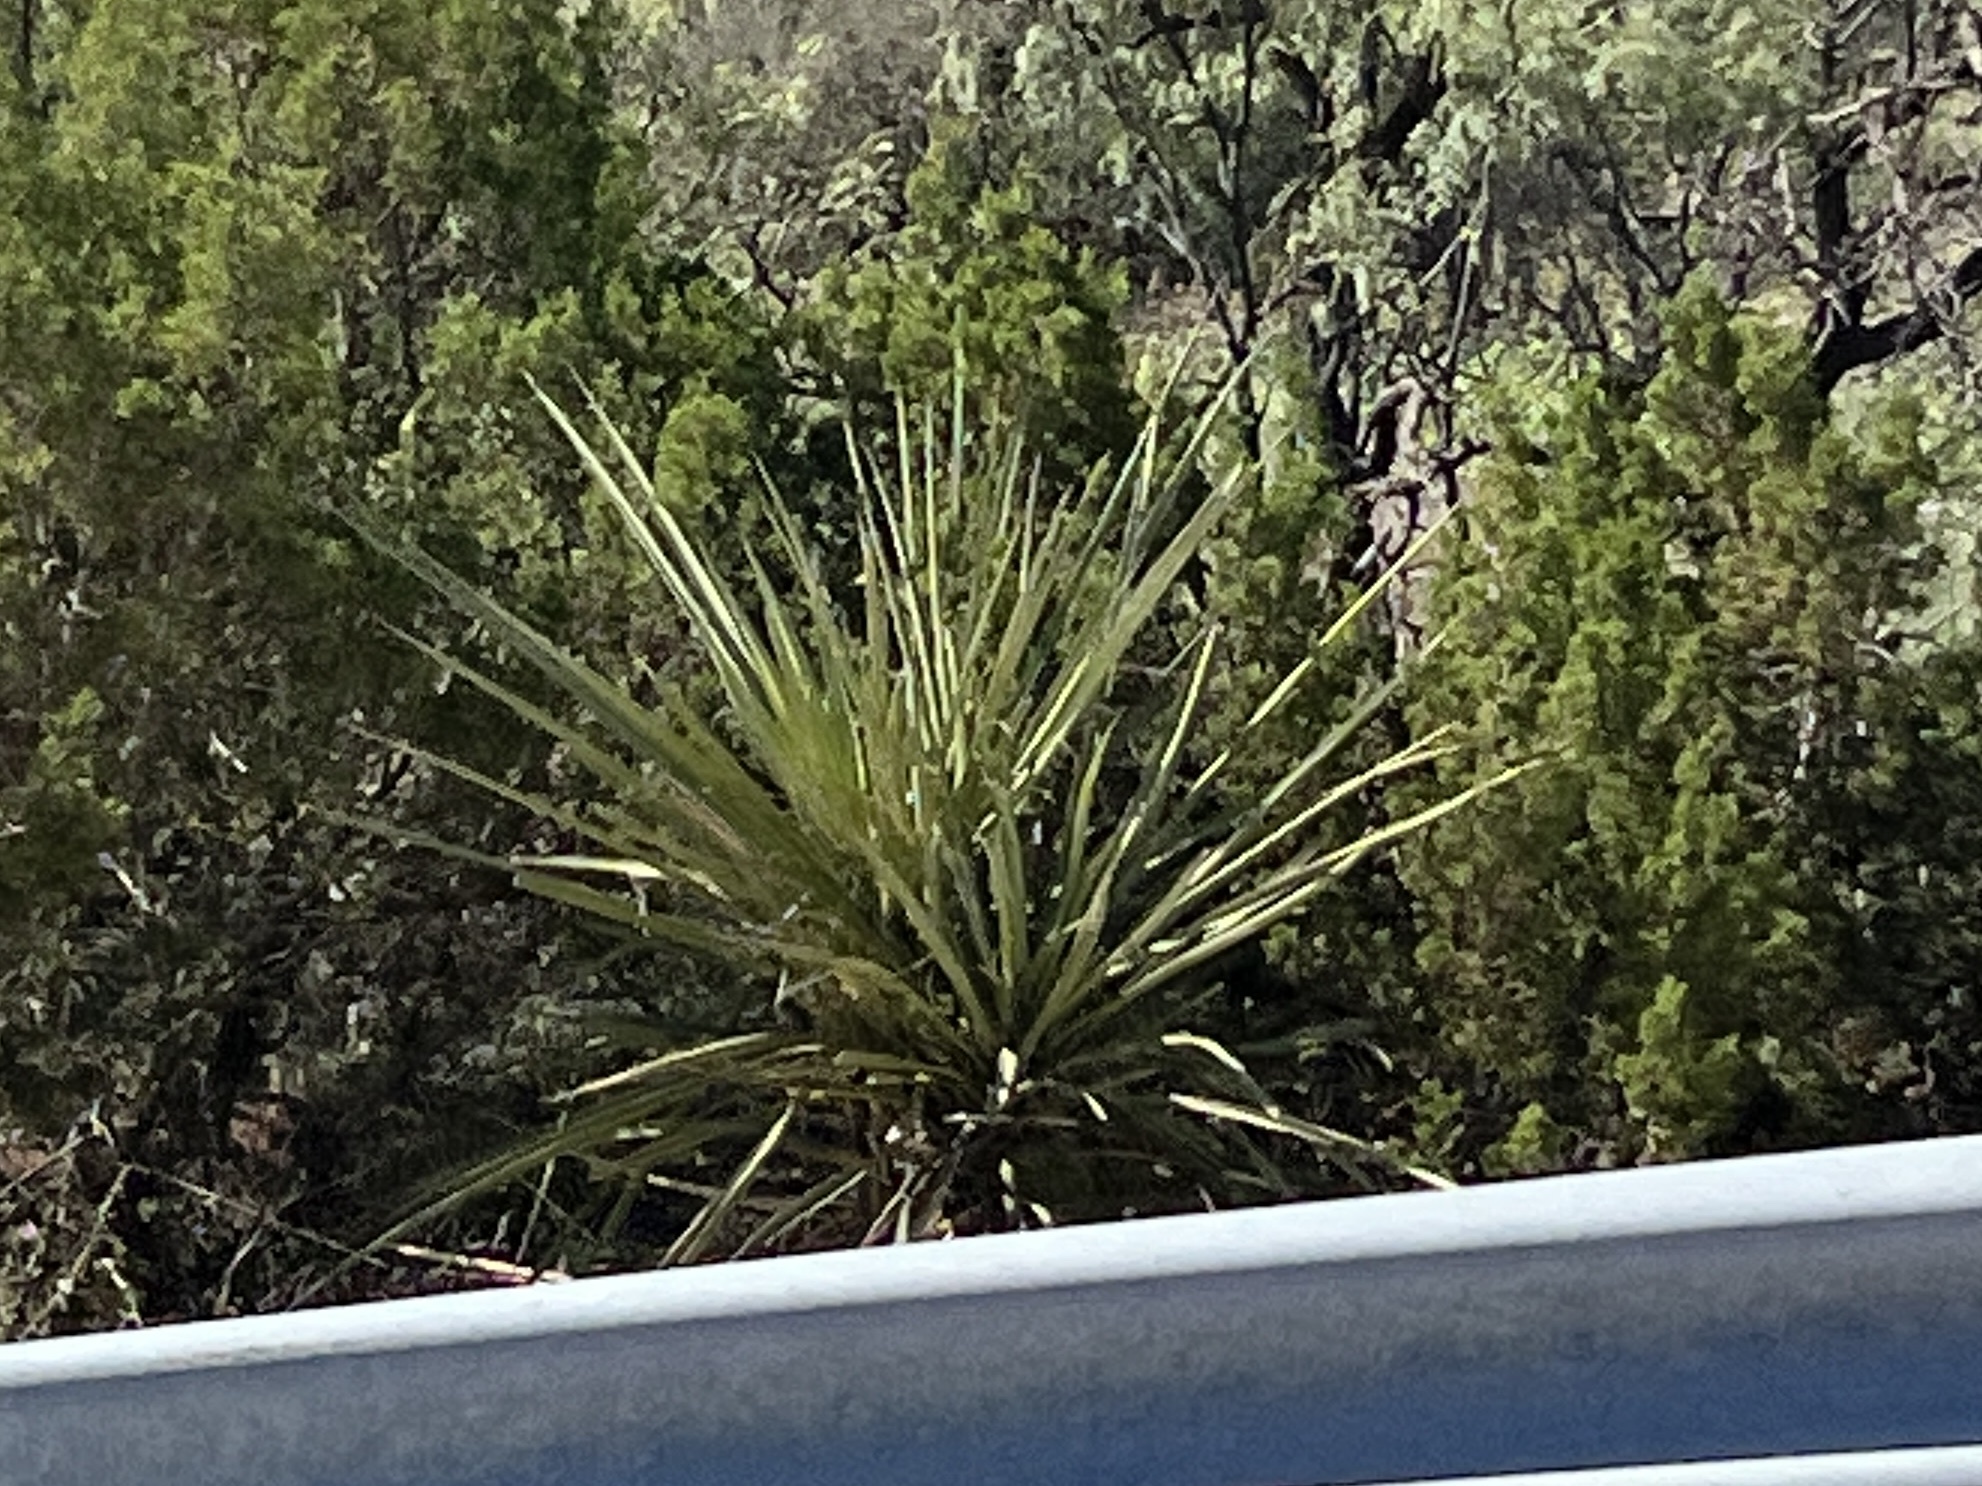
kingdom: Plantae
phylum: Tracheophyta
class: Liliopsida
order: Asparagales
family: Asparagaceae
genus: Yucca
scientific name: Yucca treculiana
